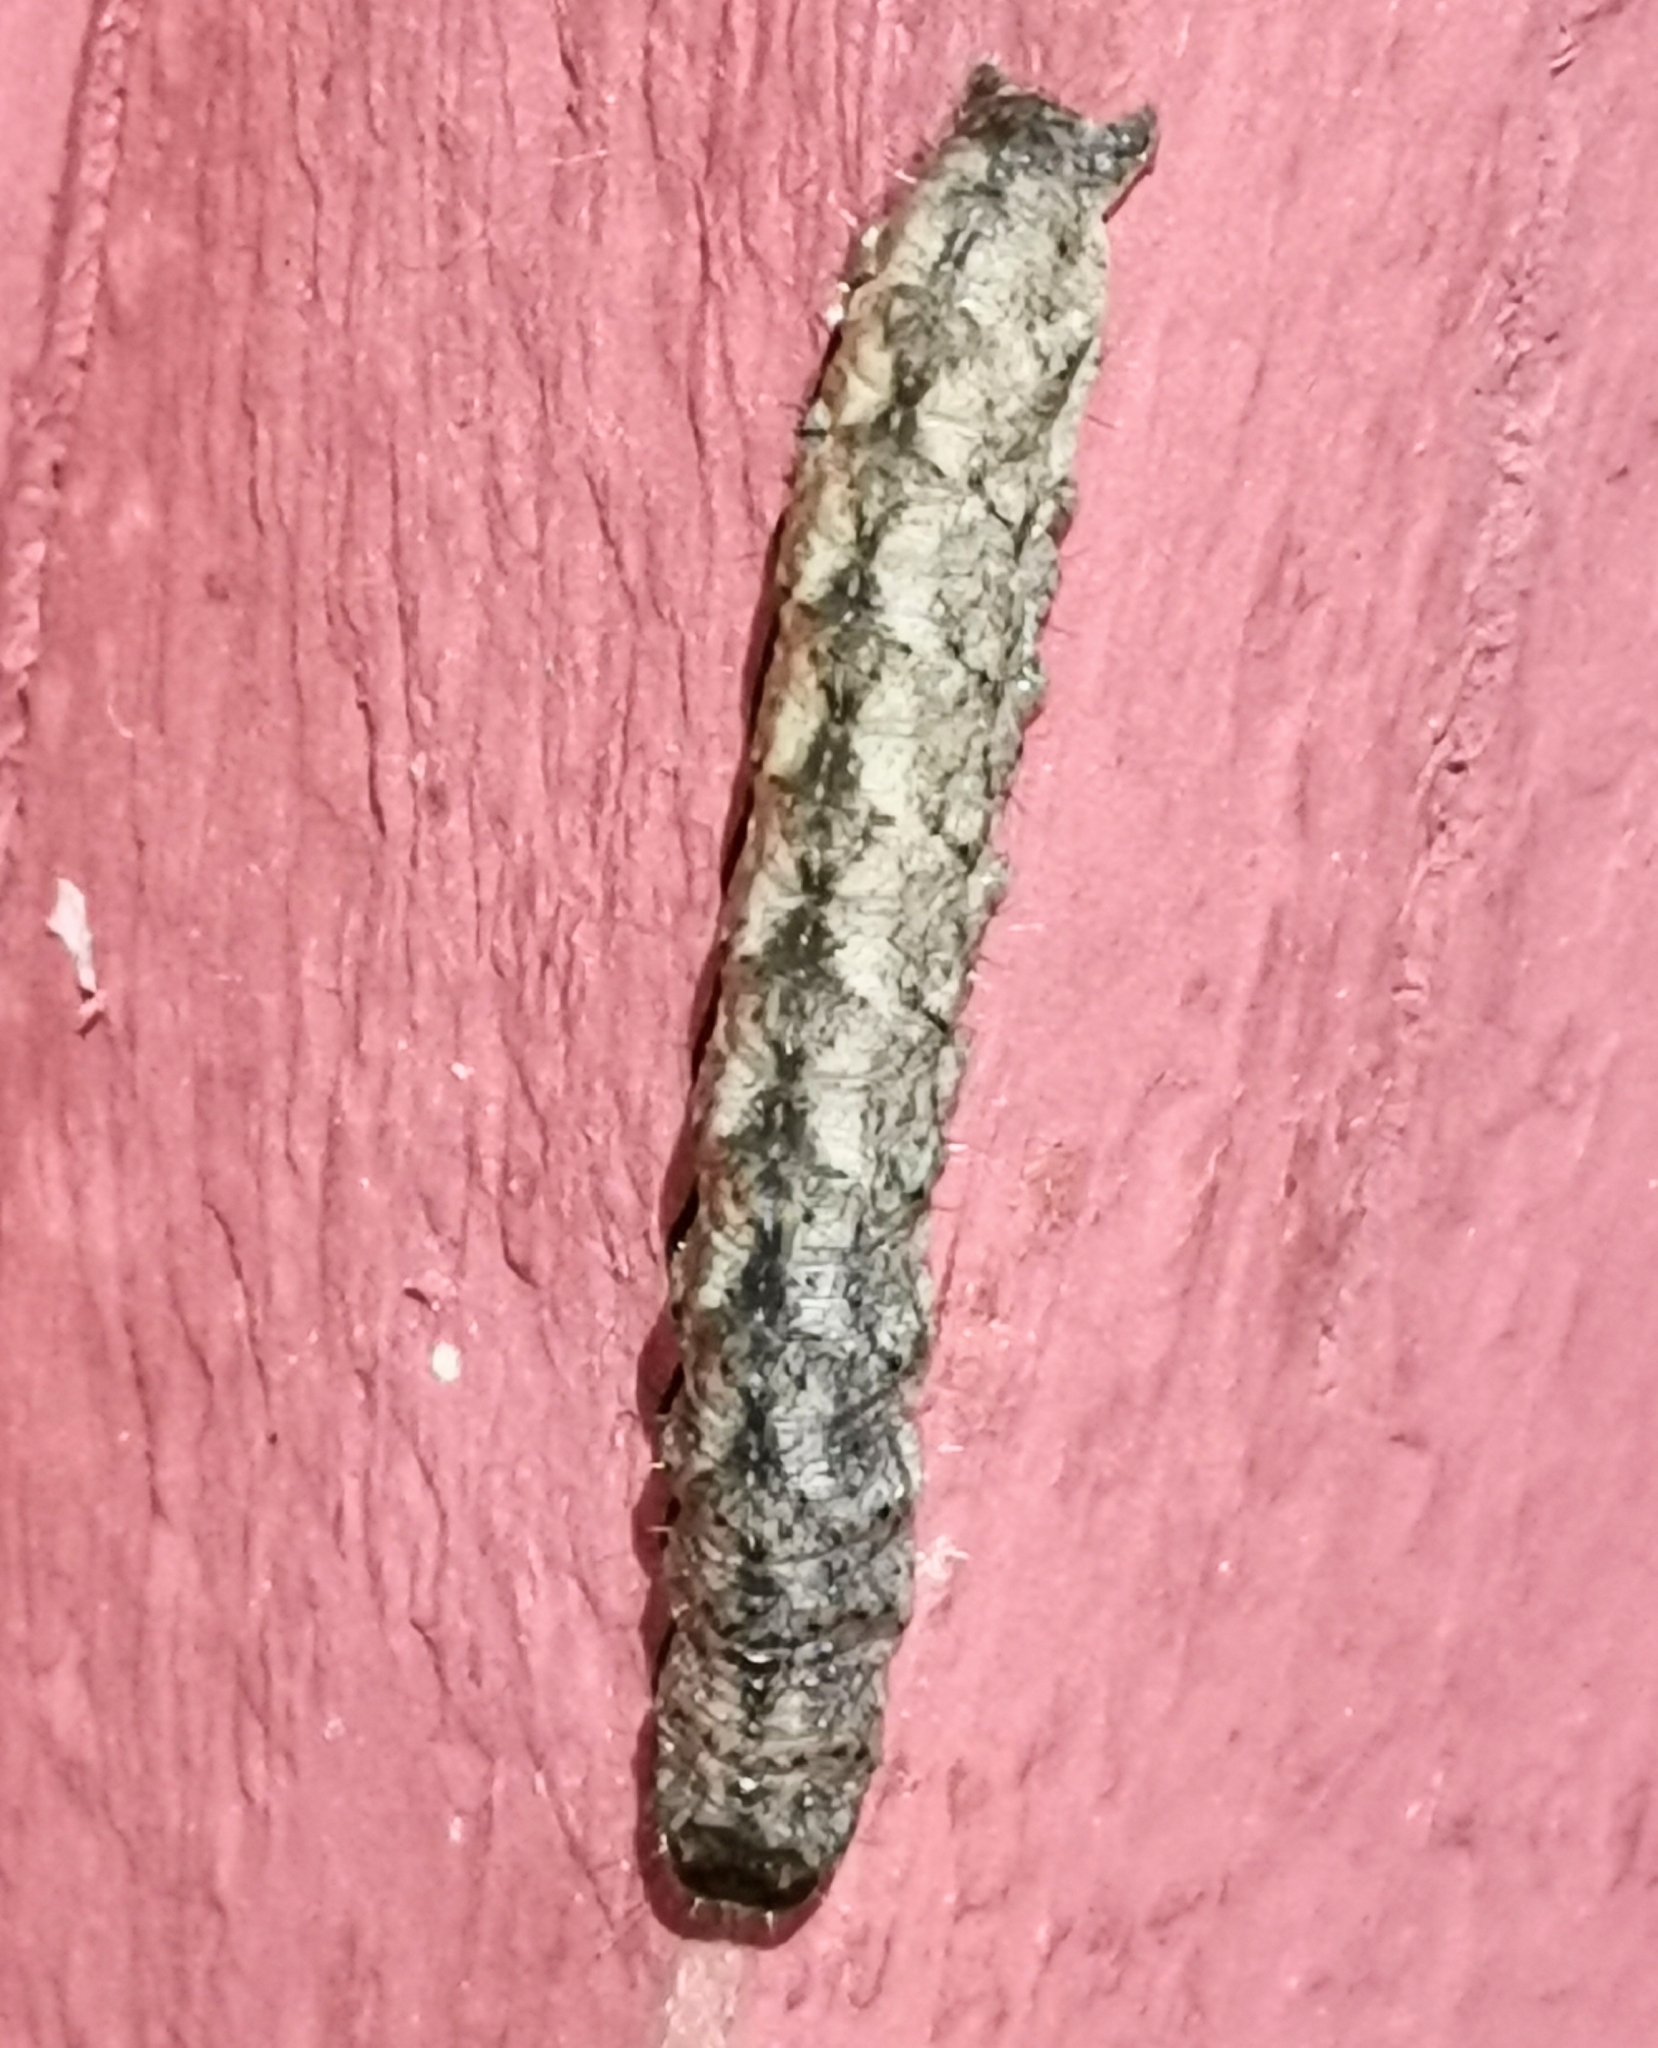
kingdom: Animalia
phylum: Arthropoda
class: Insecta
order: Lepidoptera
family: Noctuidae
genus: Polia
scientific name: Polia nebulosa
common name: Grey arches
